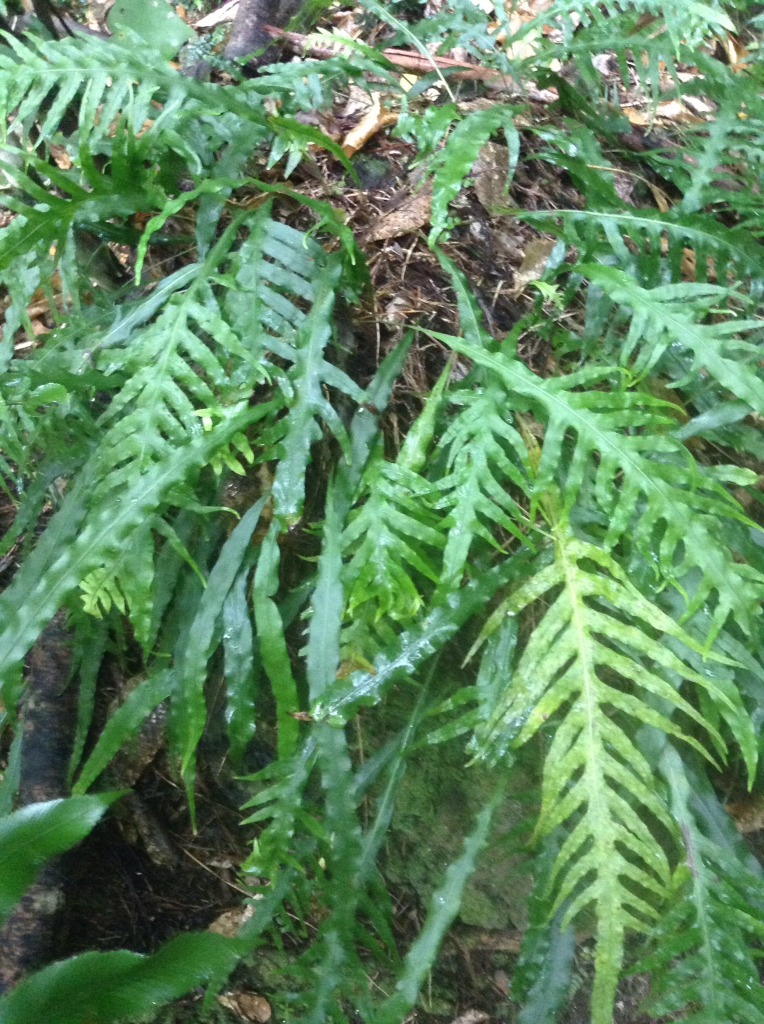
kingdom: Plantae
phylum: Tracheophyta
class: Polypodiopsida
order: Polypodiales
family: Polypodiaceae
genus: Lecanopteris
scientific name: Lecanopteris scandens
